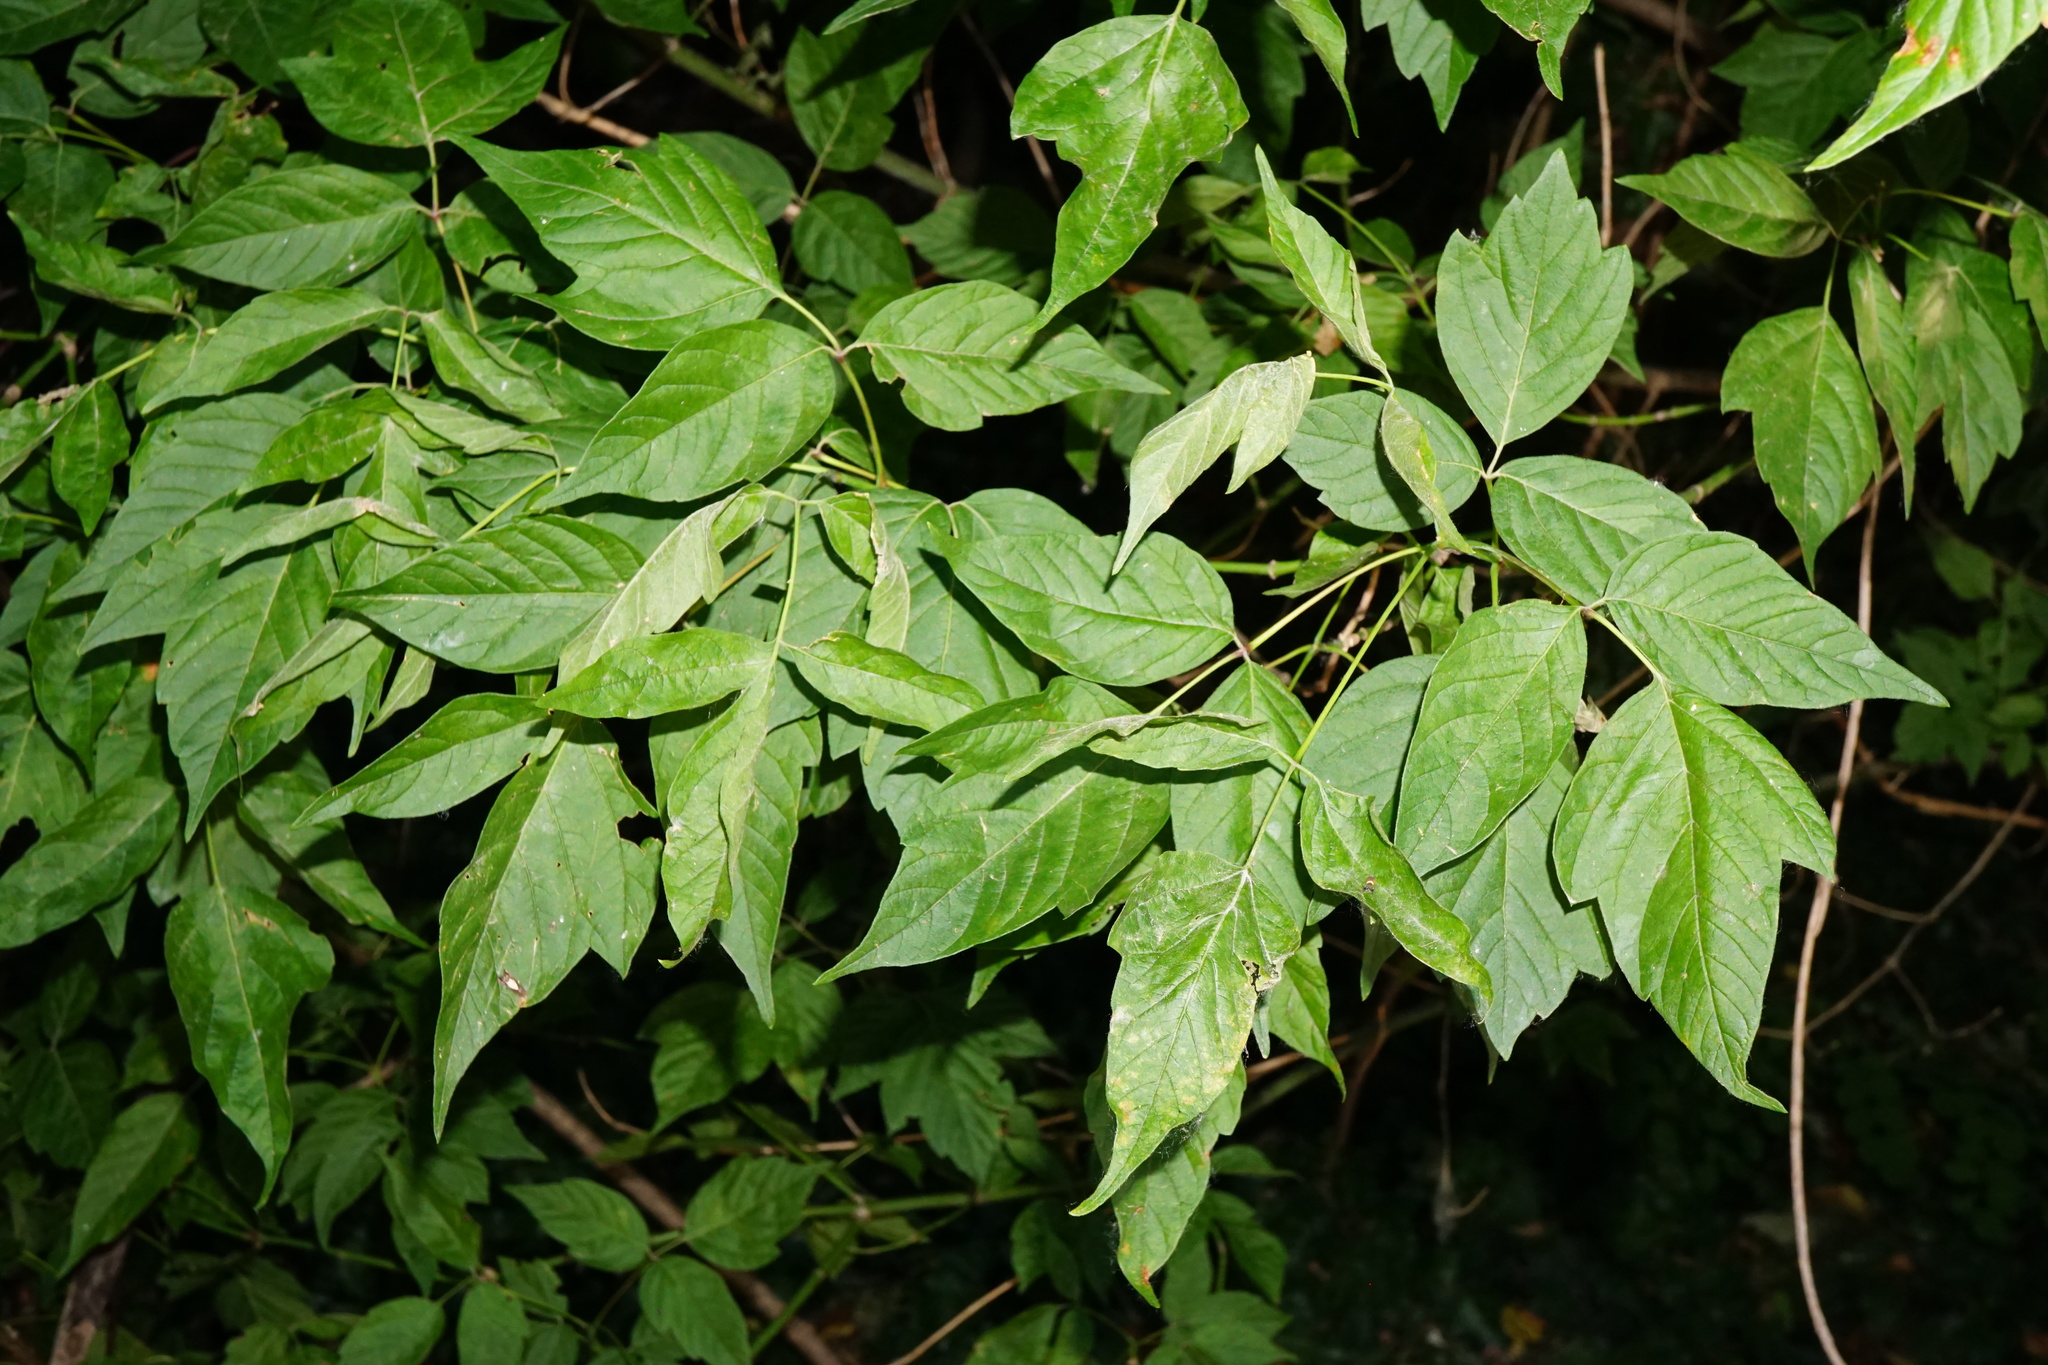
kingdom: Plantae
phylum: Tracheophyta
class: Magnoliopsida
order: Sapindales
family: Sapindaceae
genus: Acer
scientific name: Acer negundo
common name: Ashleaf maple
